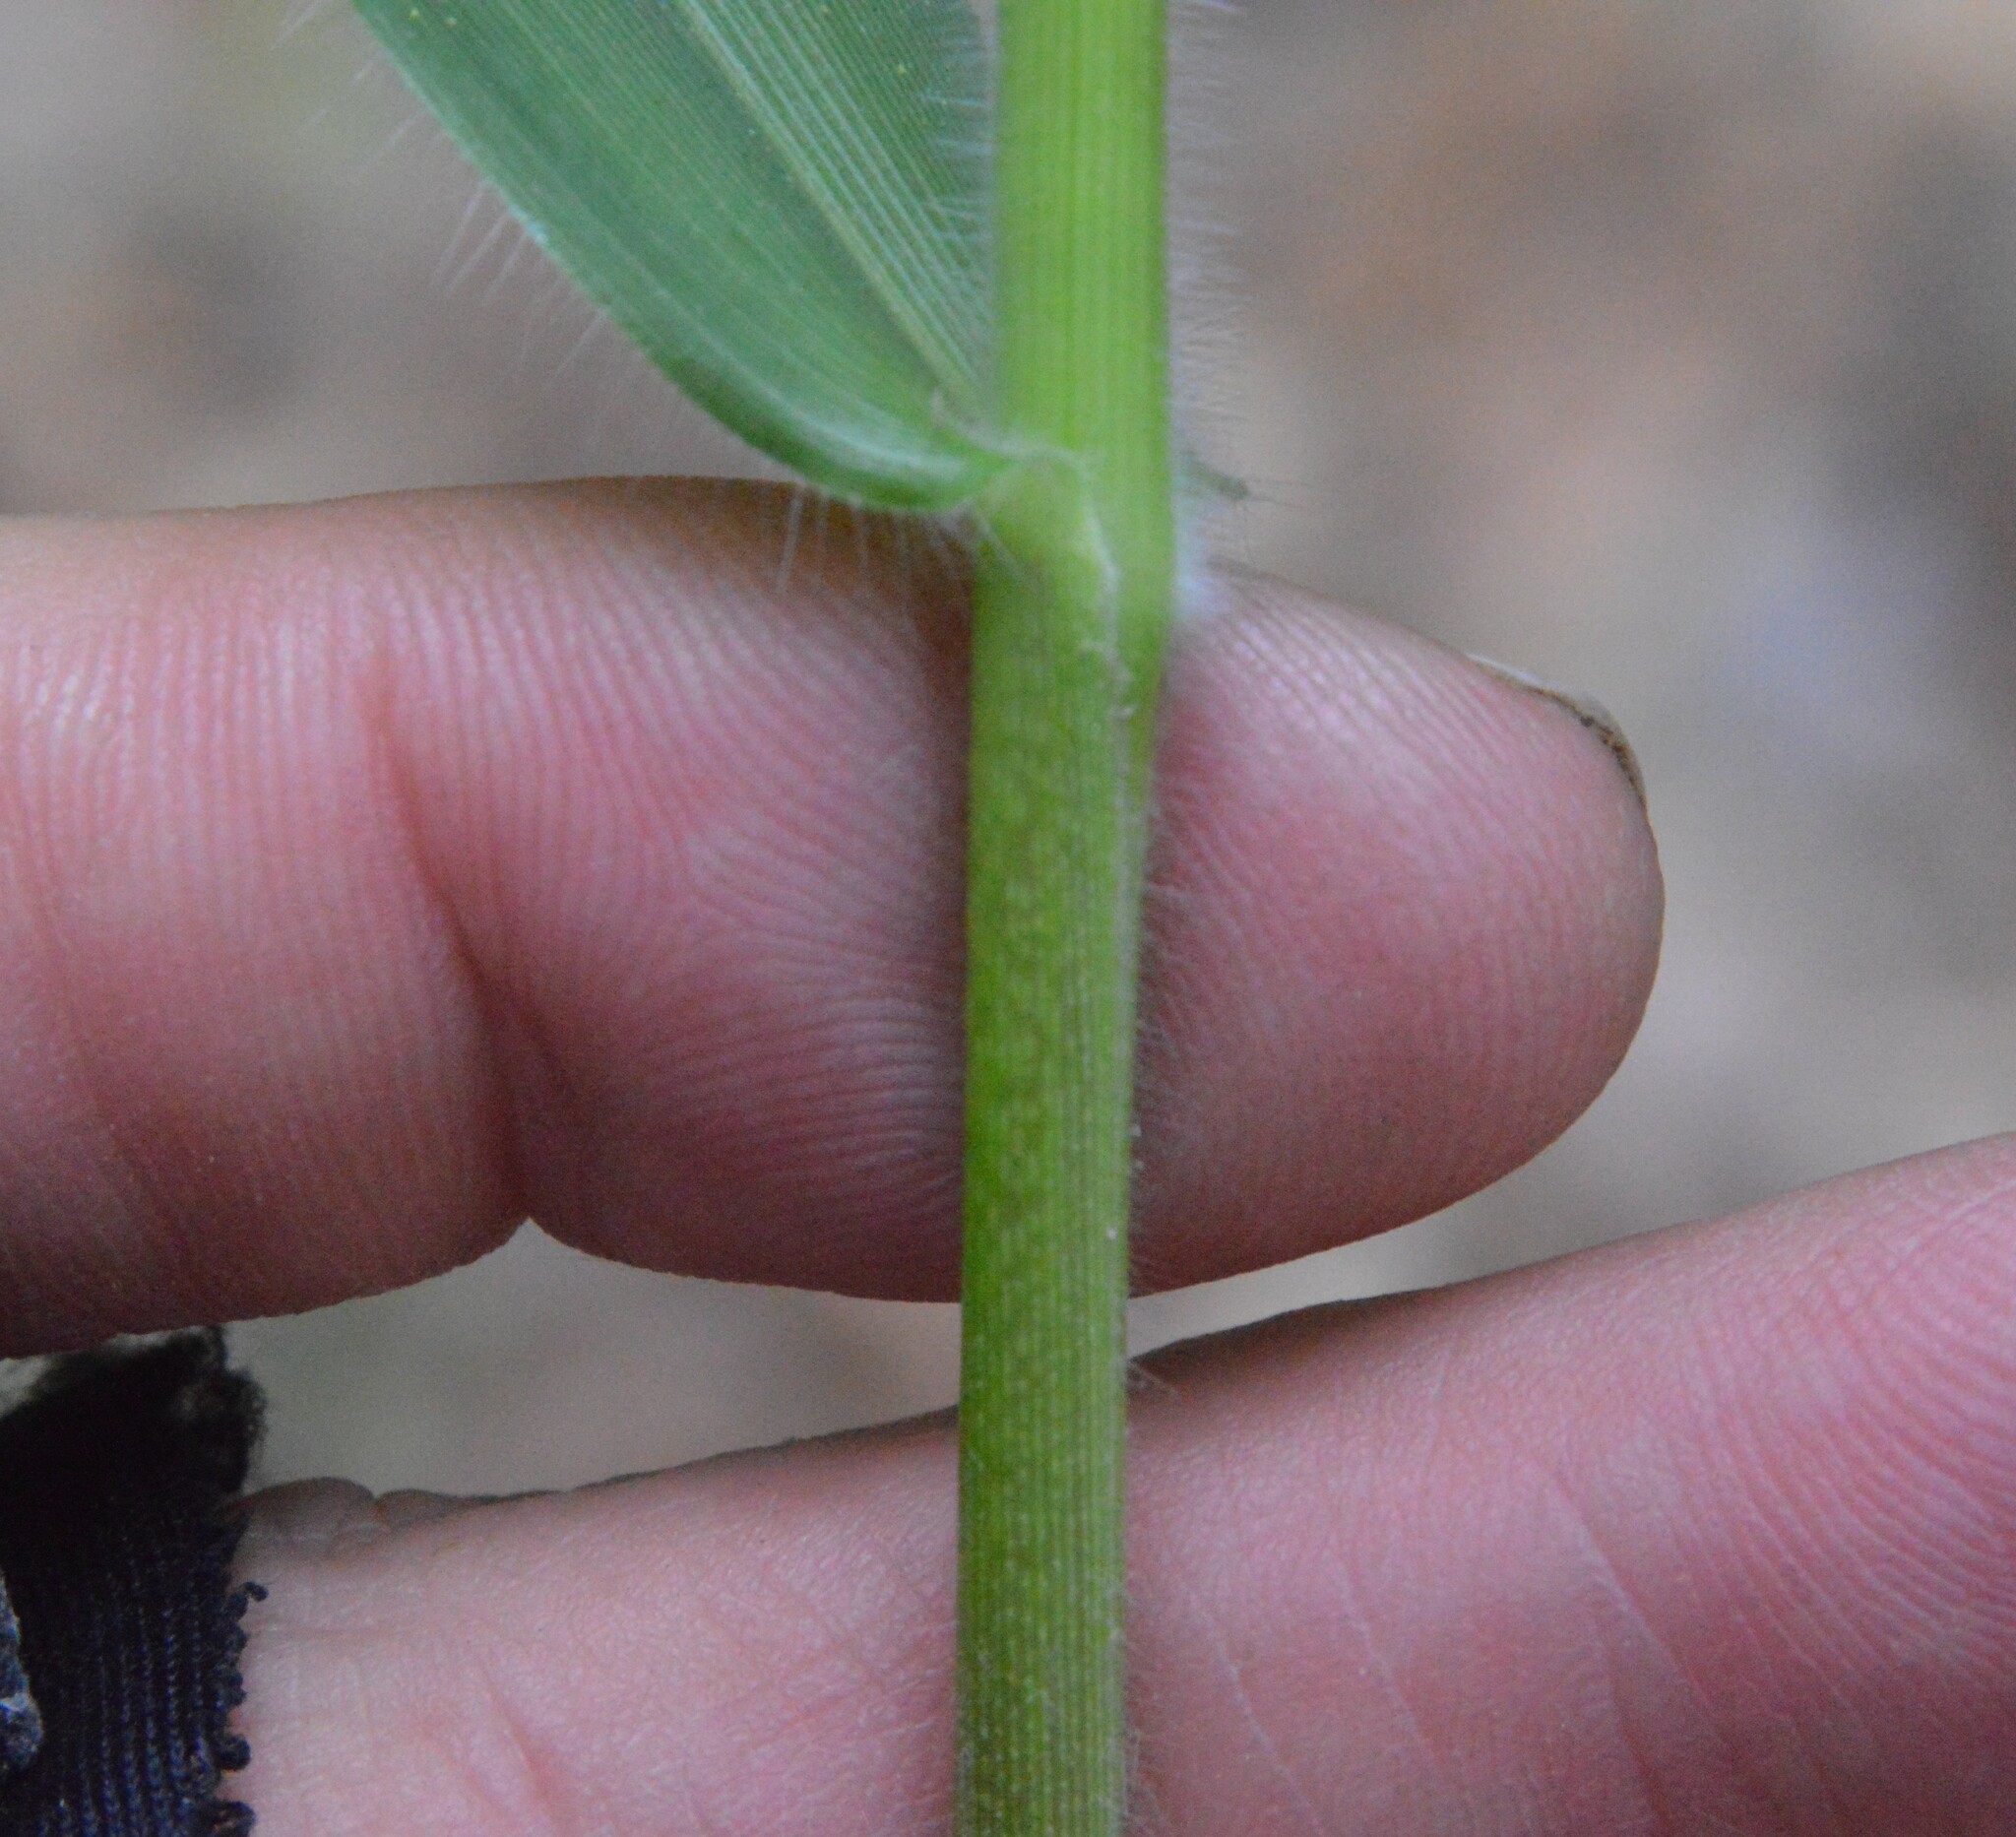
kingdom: Plantae
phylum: Tracheophyta
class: Liliopsida
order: Poales
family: Poaceae
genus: Dichanthelium
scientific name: Dichanthelium scoparium
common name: Velvety panic grass
